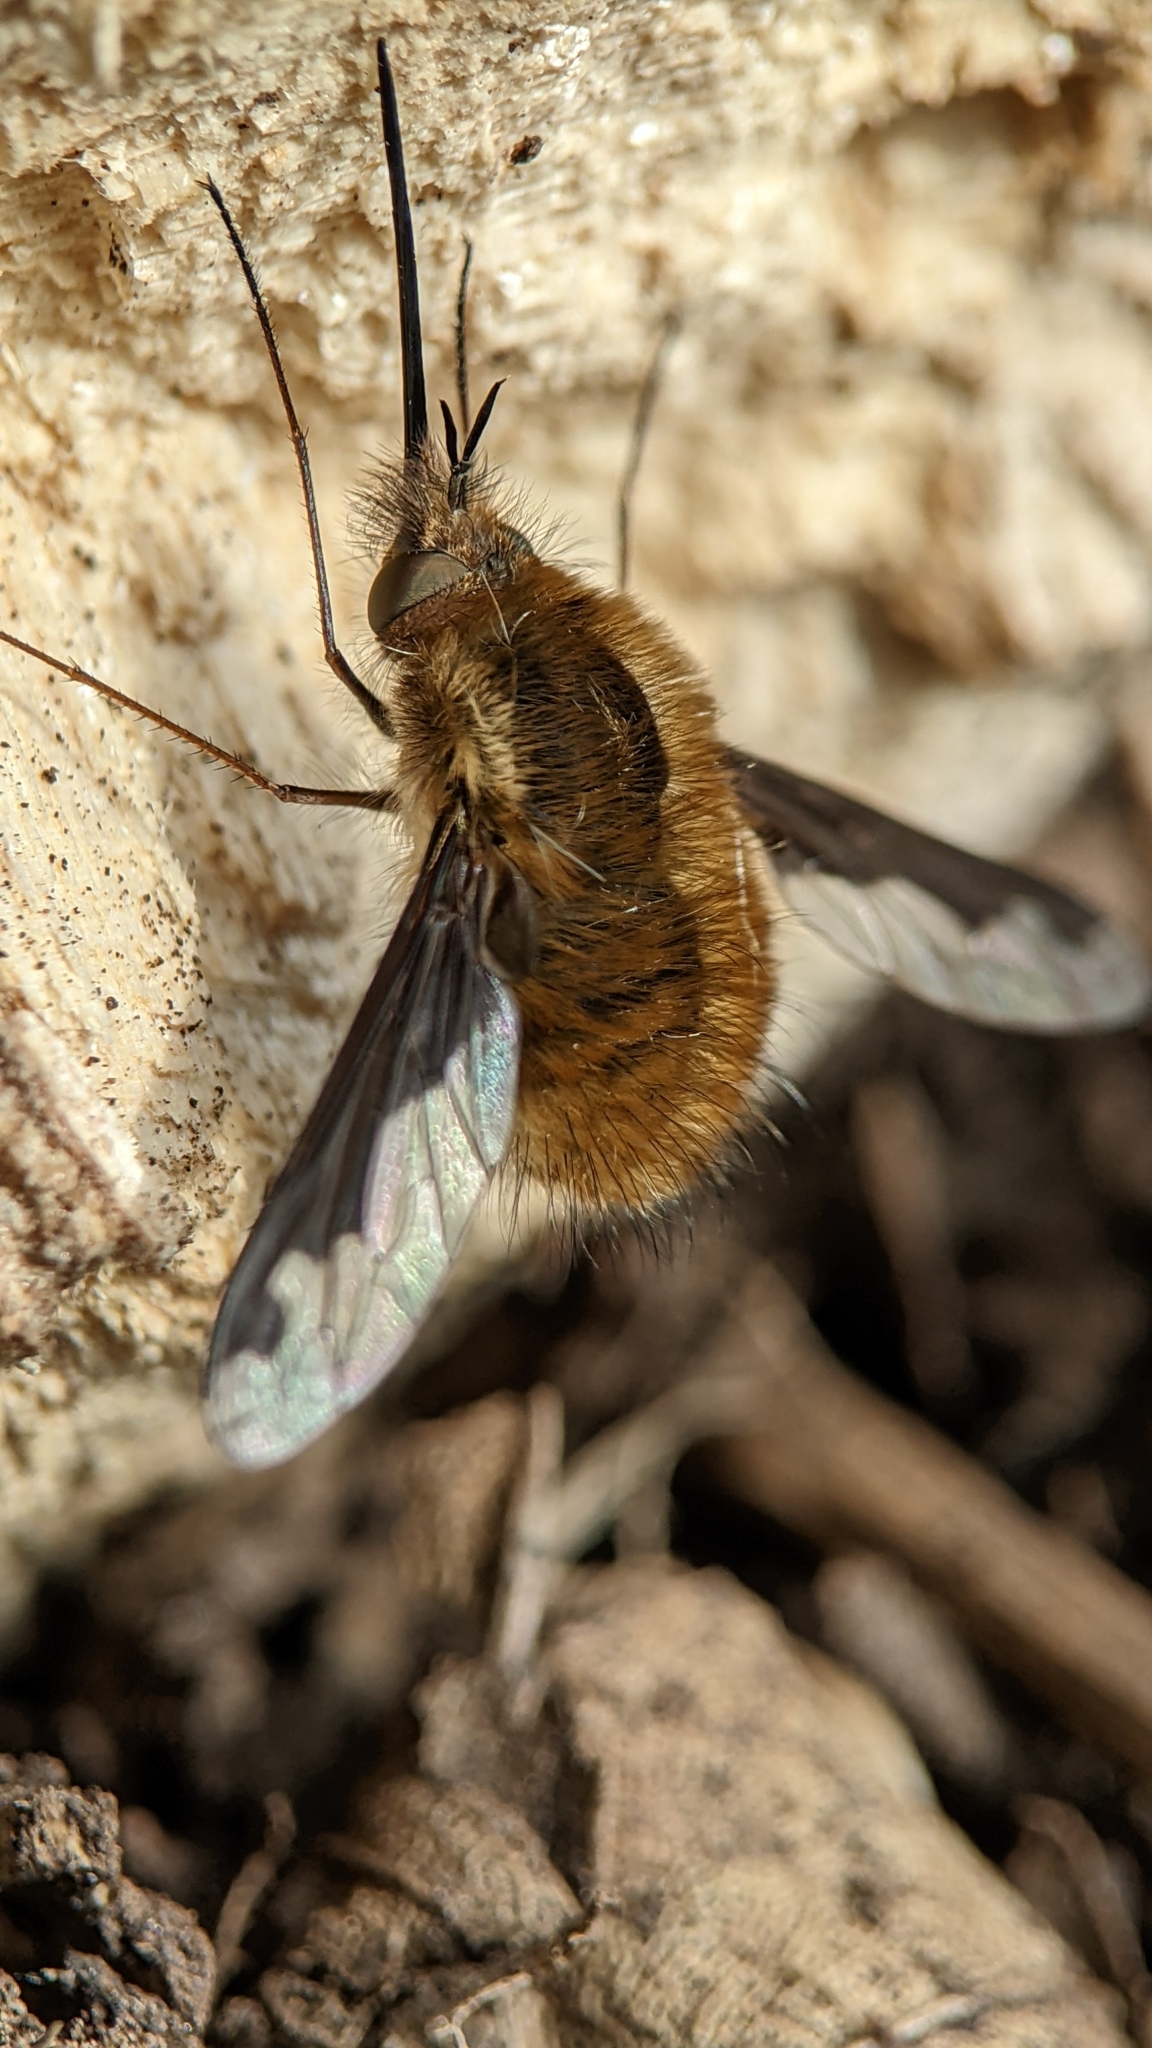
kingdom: Animalia
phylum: Arthropoda
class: Insecta
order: Diptera
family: Bombyliidae
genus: Bombylius
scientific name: Bombylius major
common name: Bee fly
